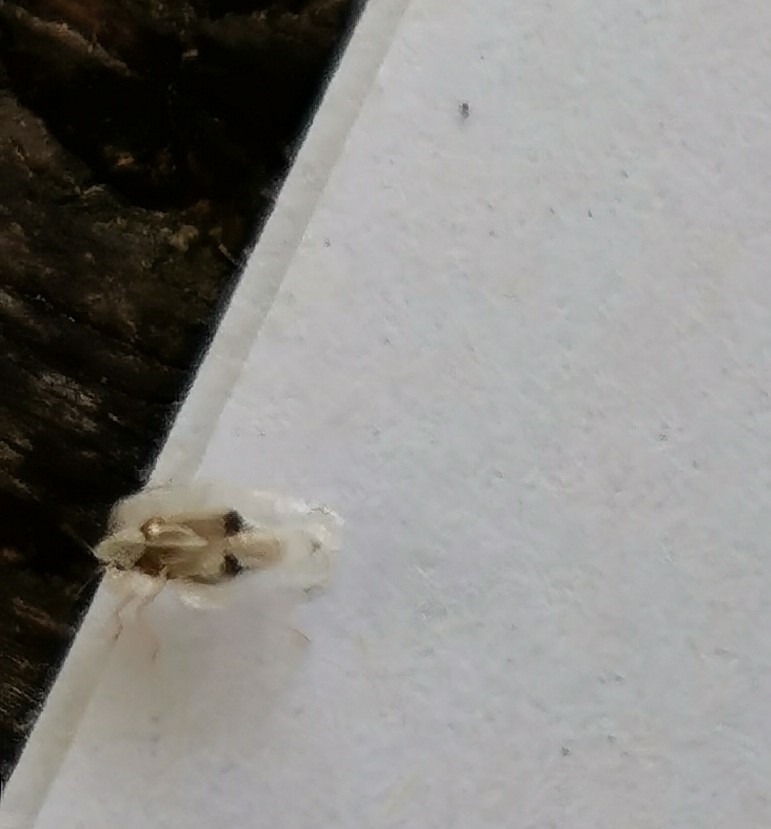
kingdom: Animalia
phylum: Arthropoda
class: Insecta
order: Hemiptera
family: Tingidae
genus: Corythucha
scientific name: Corythucha ciliata
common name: Sycamore lace bug
